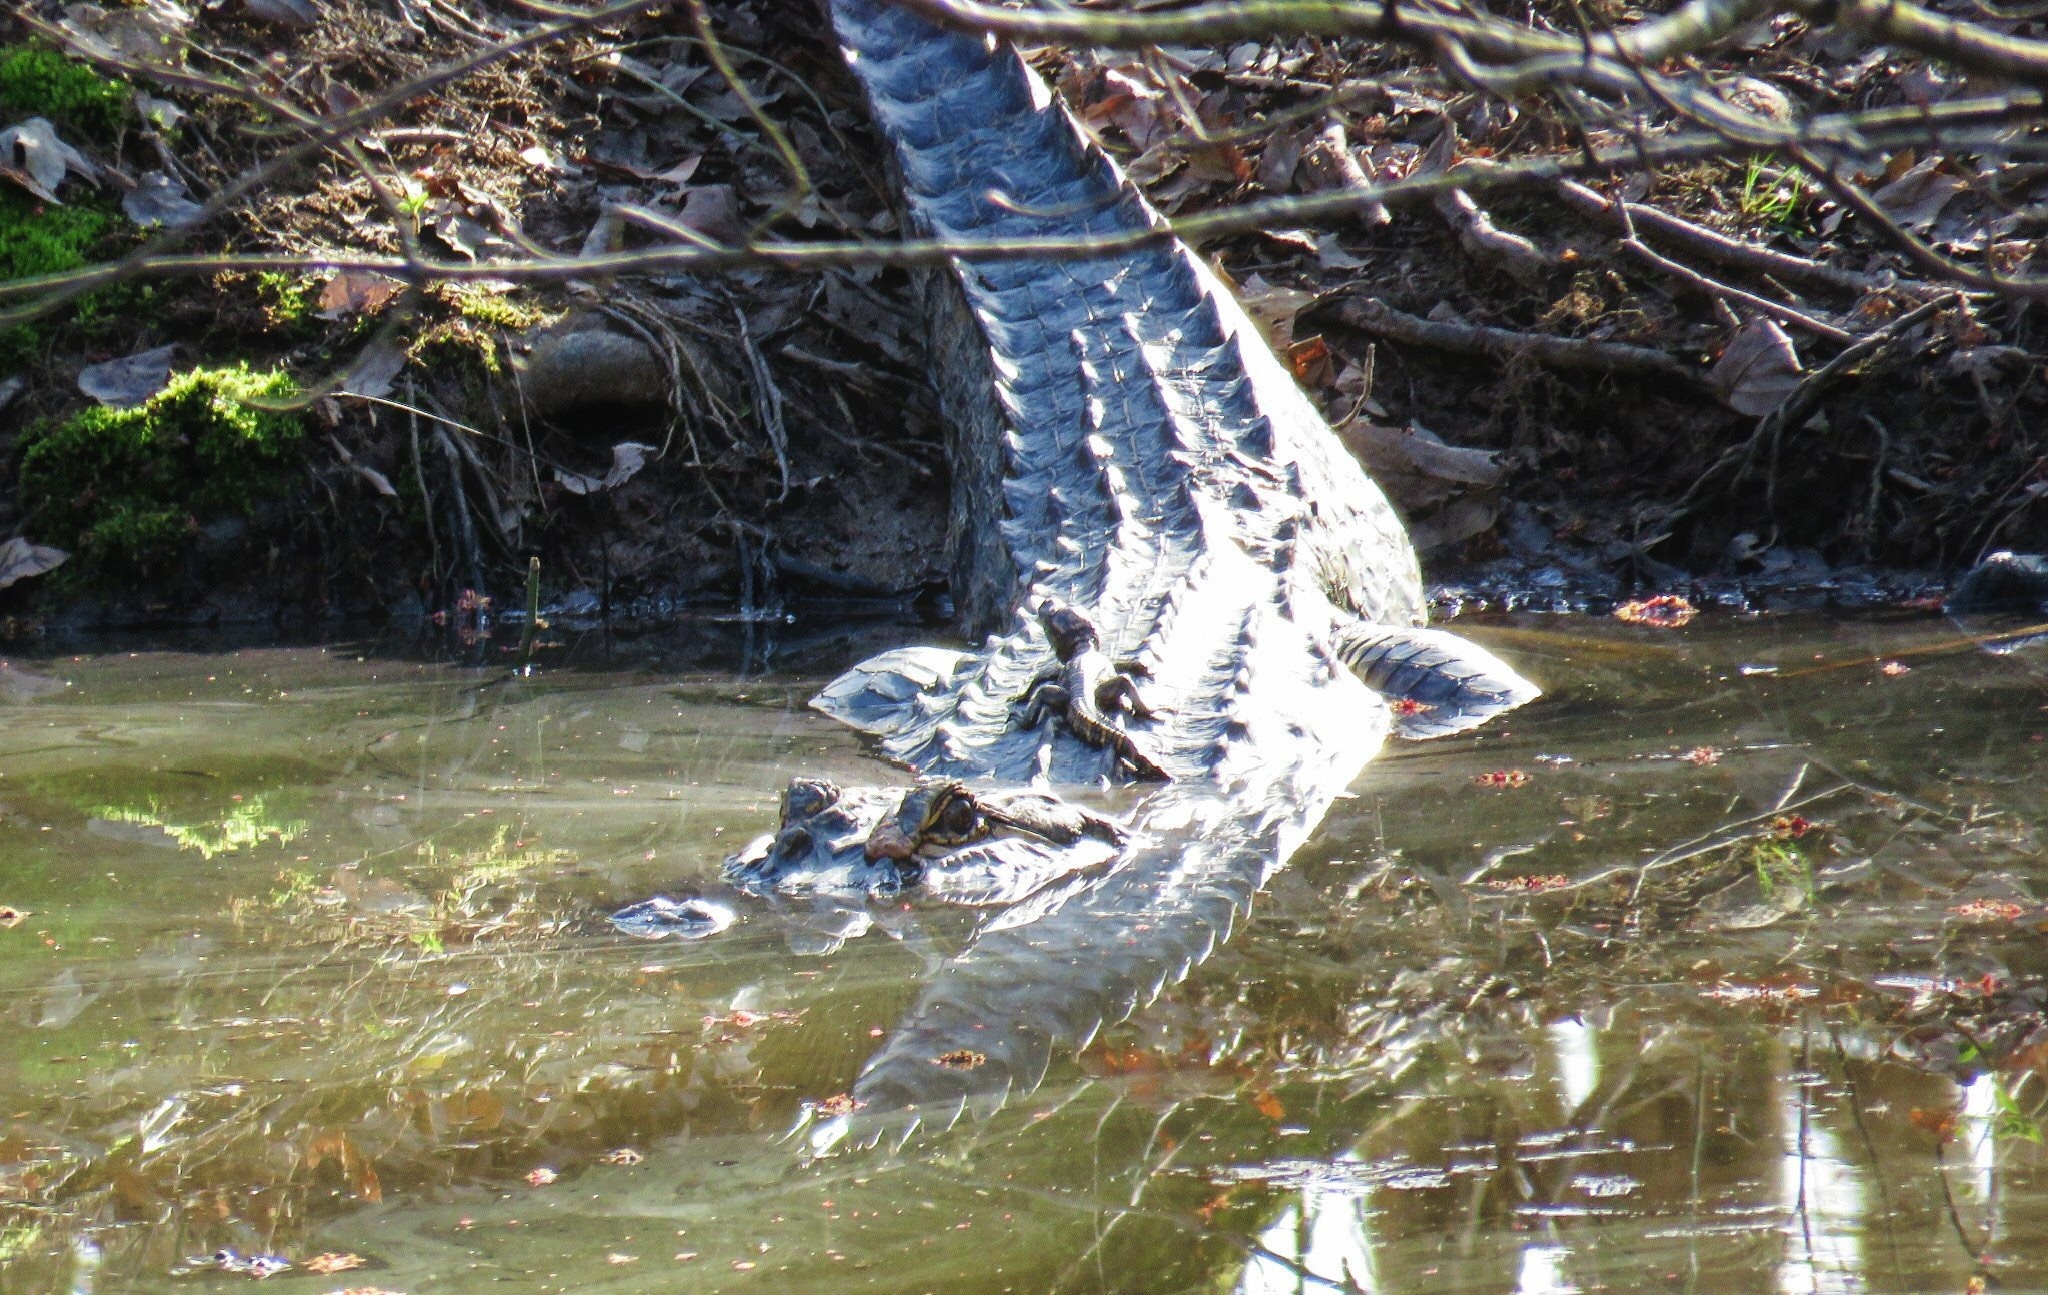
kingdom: Animalia
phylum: Chordata
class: Crocodylia
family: Alligatoridae
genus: Alligator
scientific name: Alligator mississippiensis
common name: American alligator
